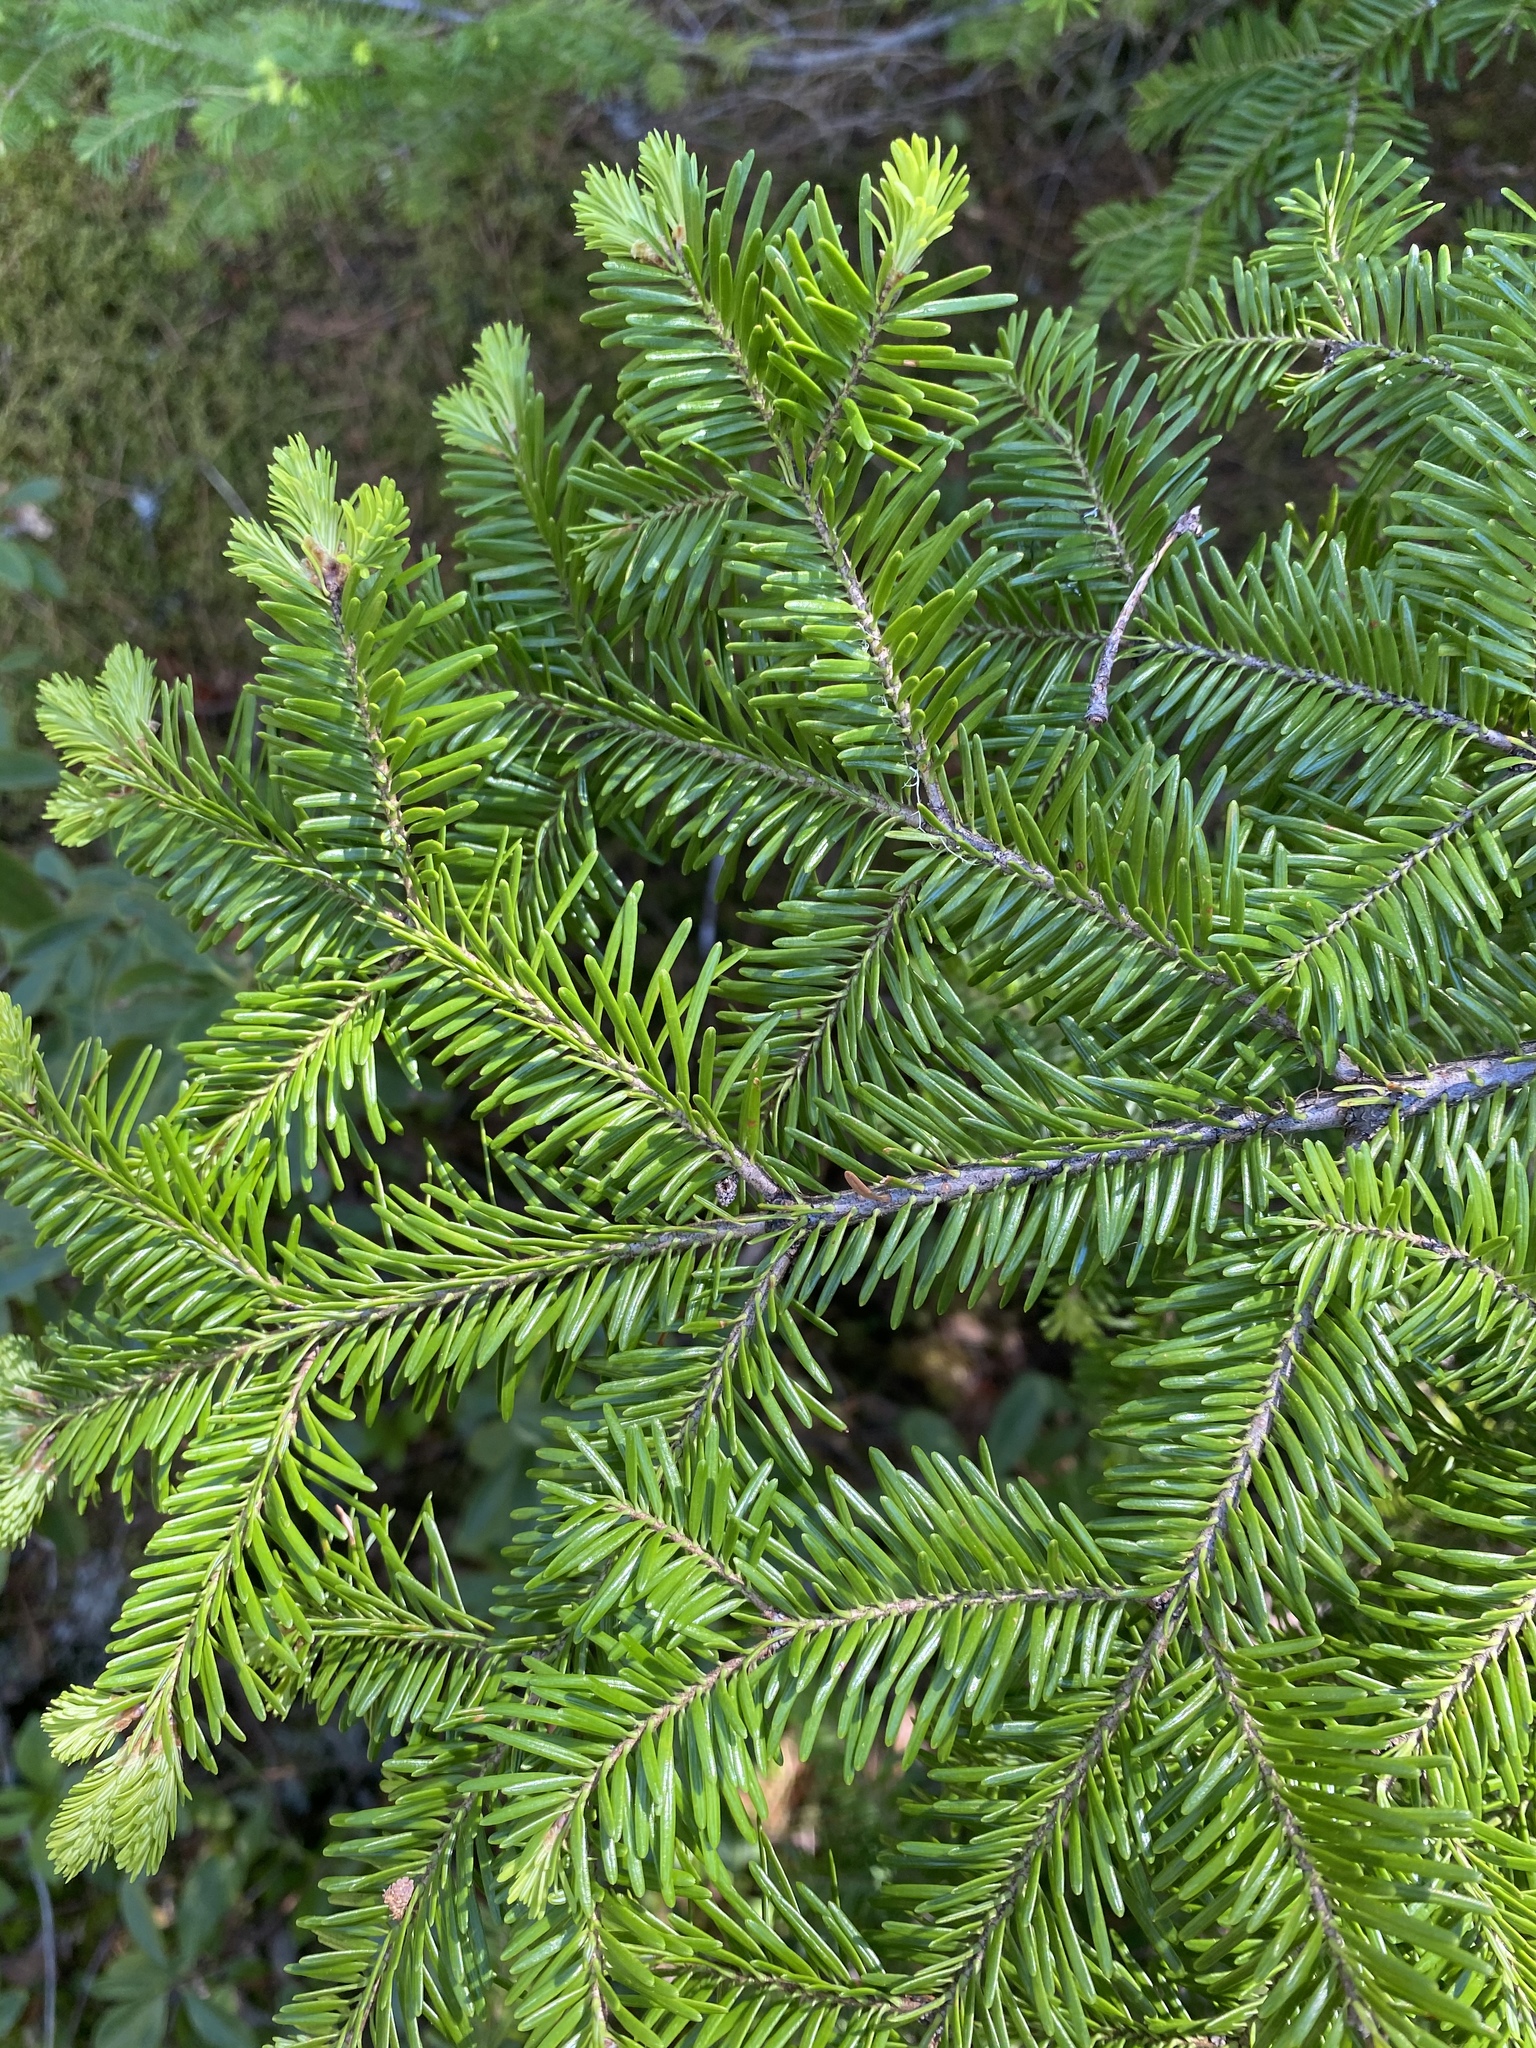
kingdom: Plantae
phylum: Tracheophyta
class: Pinopsida
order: Pinales
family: Pinaceae
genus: Abies
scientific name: Abies balsamea
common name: Balsam fir
